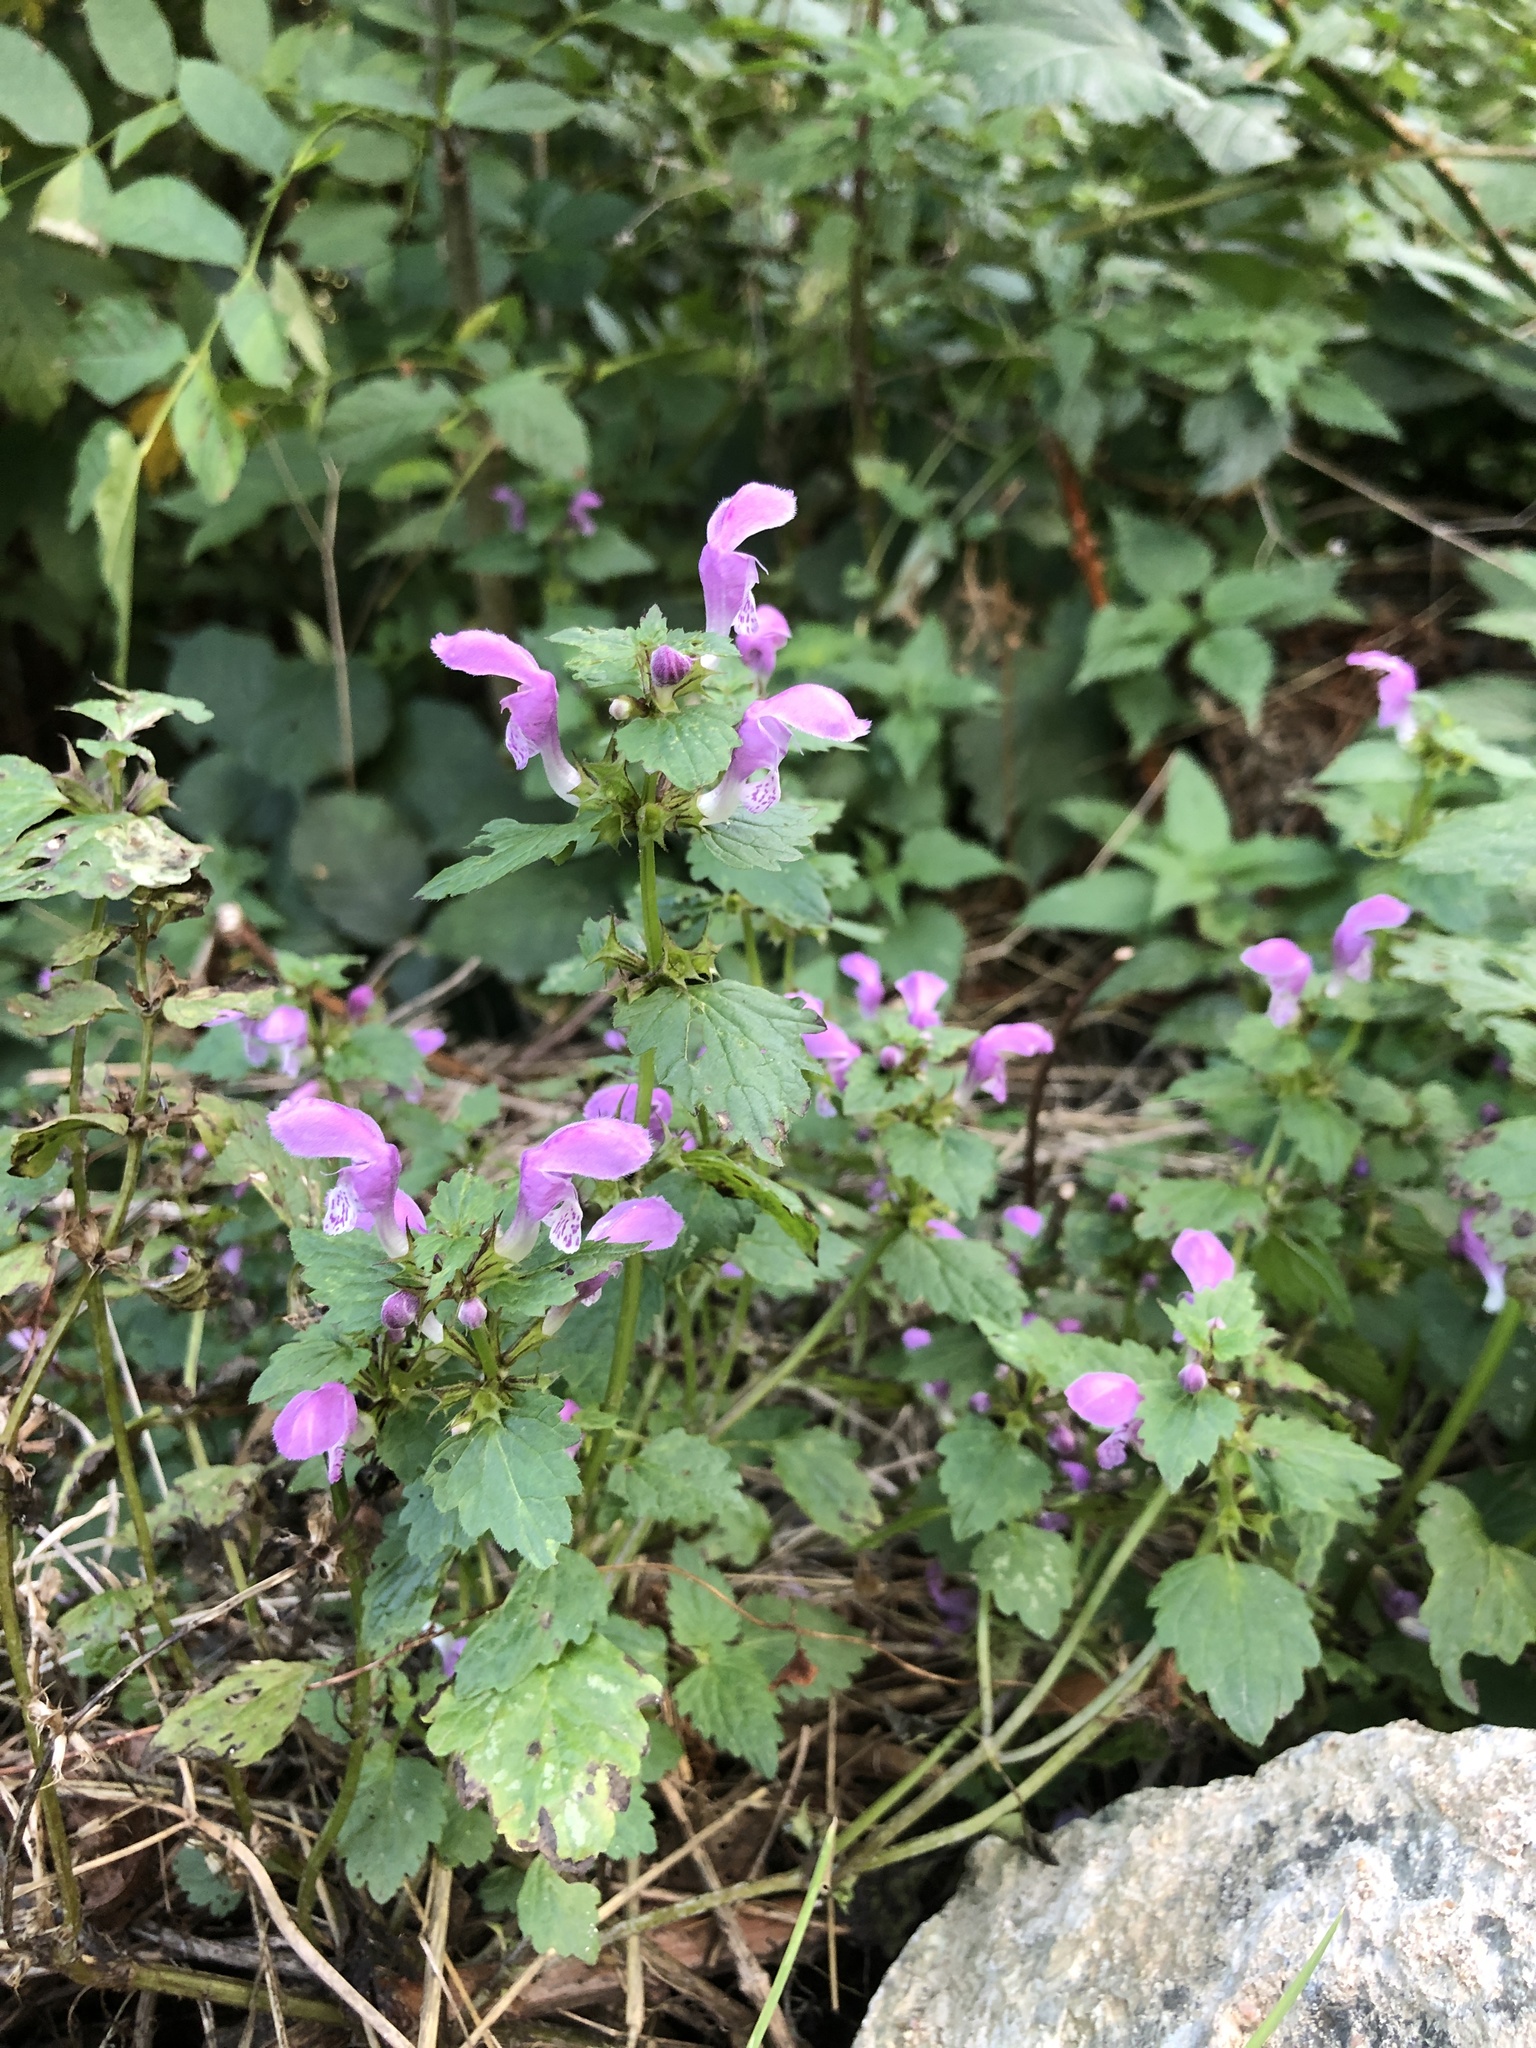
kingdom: Plantae
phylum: Tracheophyta
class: Magnoliopsida
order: Lamiales
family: Lamiaceae
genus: Lamium
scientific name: Lamium maculatum
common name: Spotted dead-nettle
